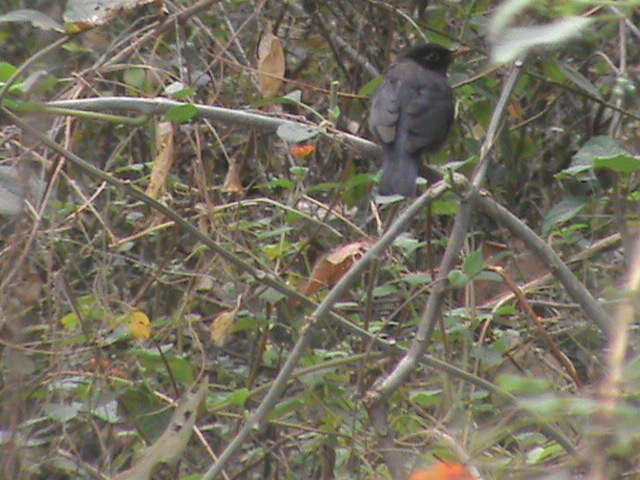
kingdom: Animalia
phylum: Chordata
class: Aves
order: Passeriformes
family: Turdidae
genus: Turdus
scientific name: Turdus simillimus
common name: Indian blackbird
